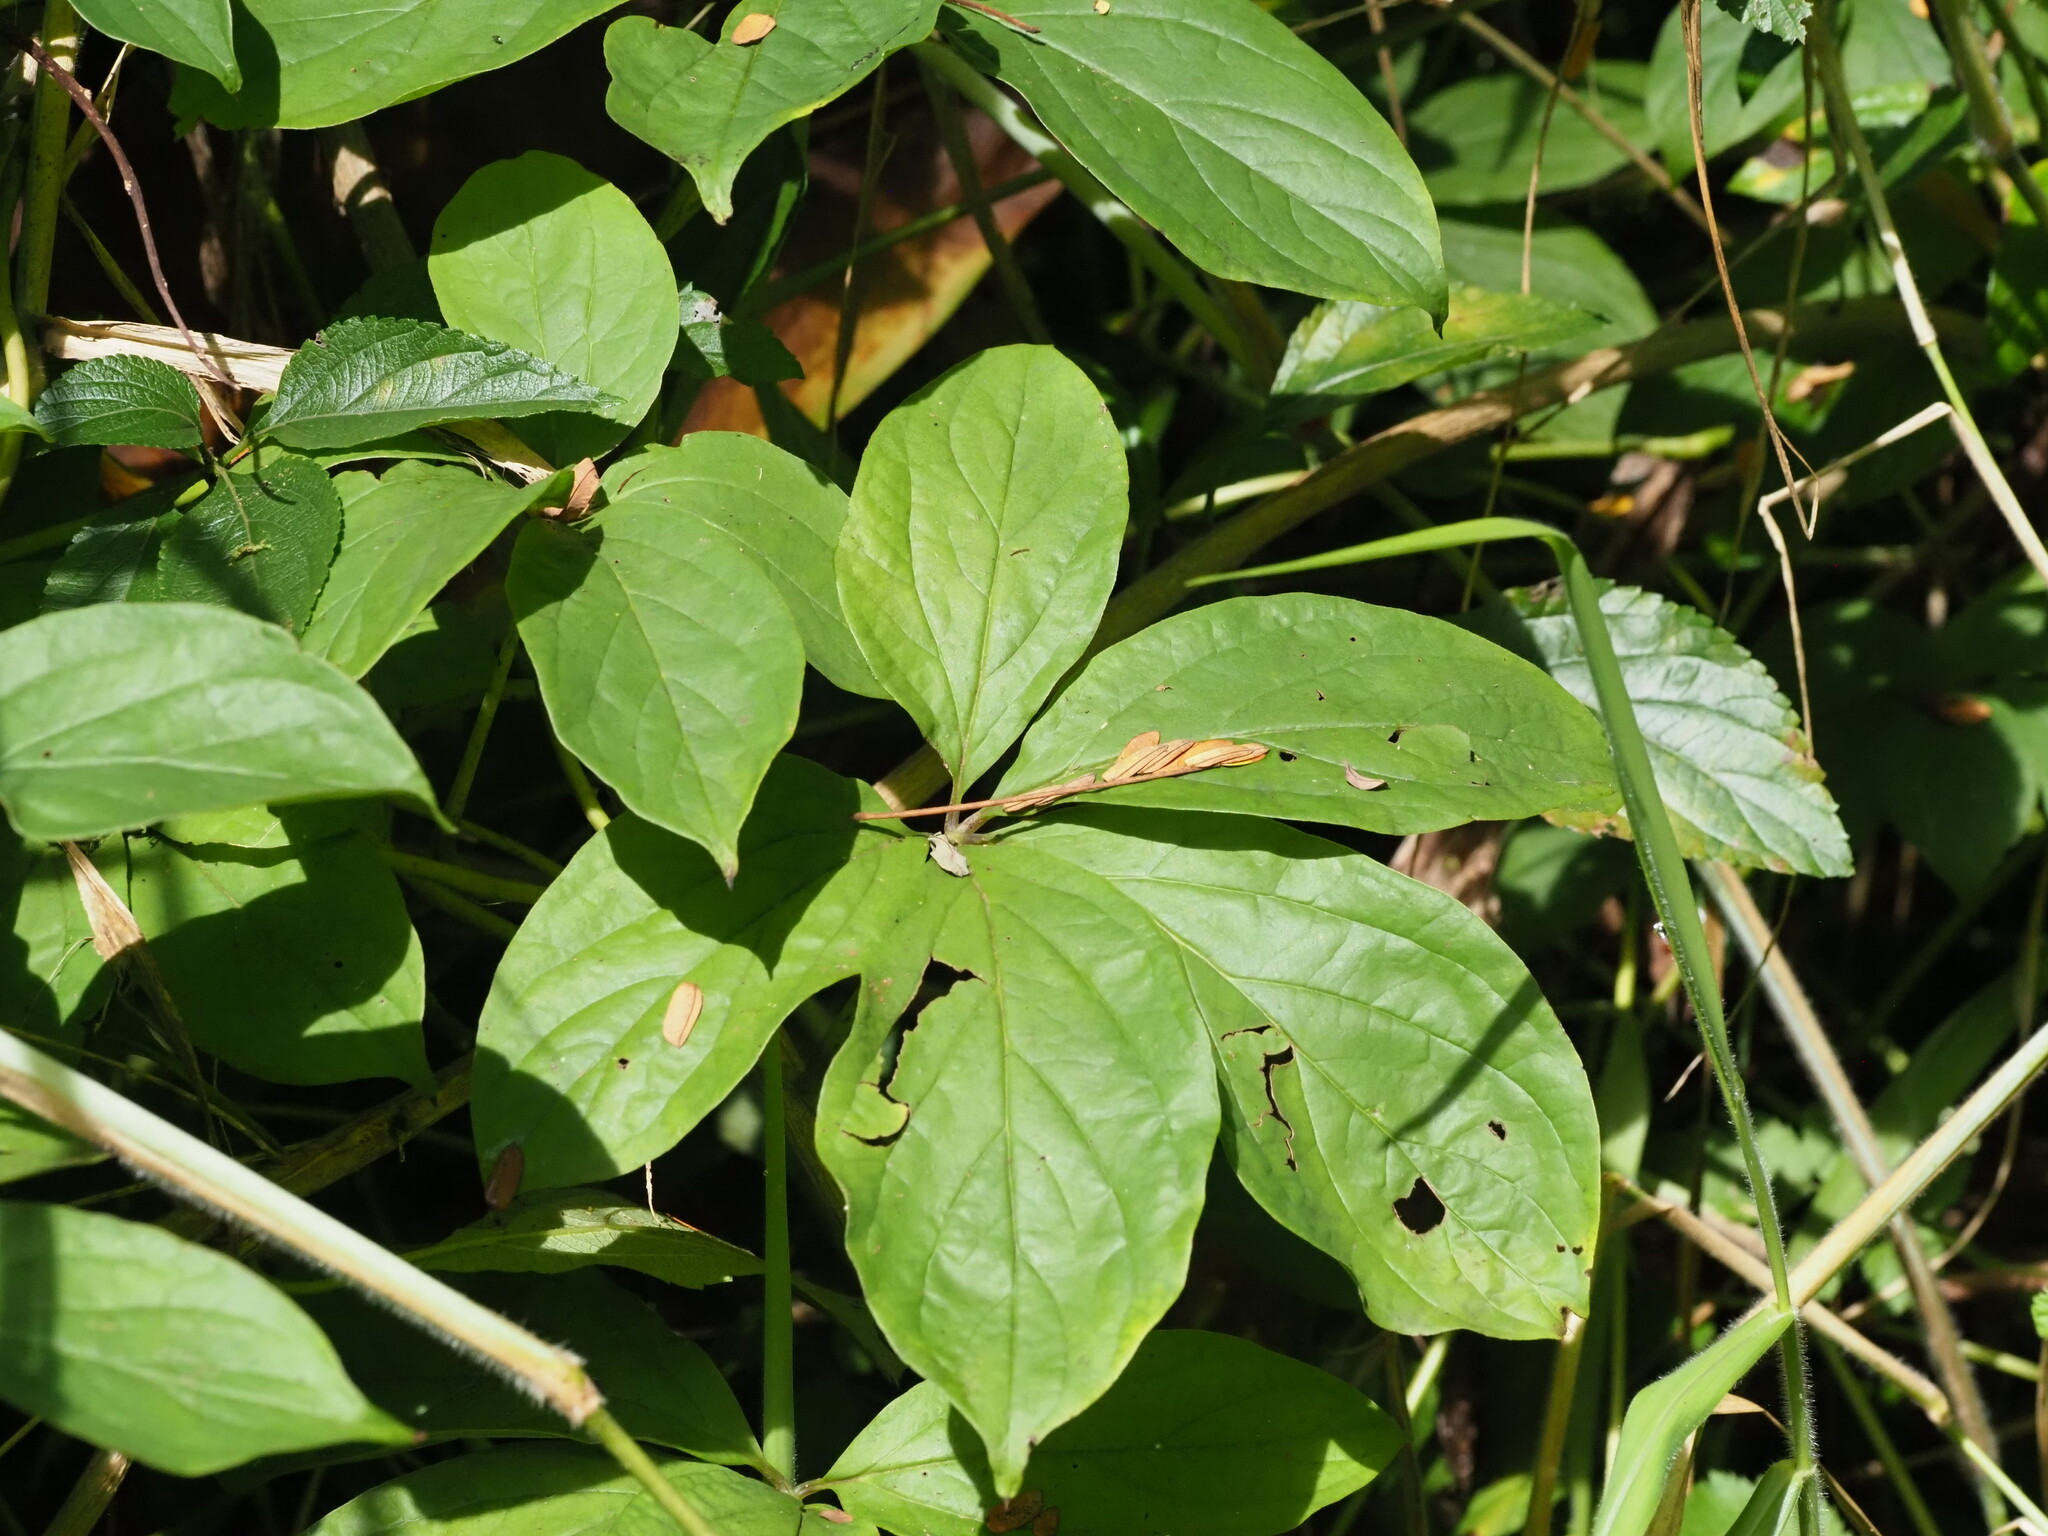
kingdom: Plantae
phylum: Tracheophyta
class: Liliopsida
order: Dioscoreales
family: Dioscoreaceae
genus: Dioscorea
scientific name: Dioscorea pentaphylla
